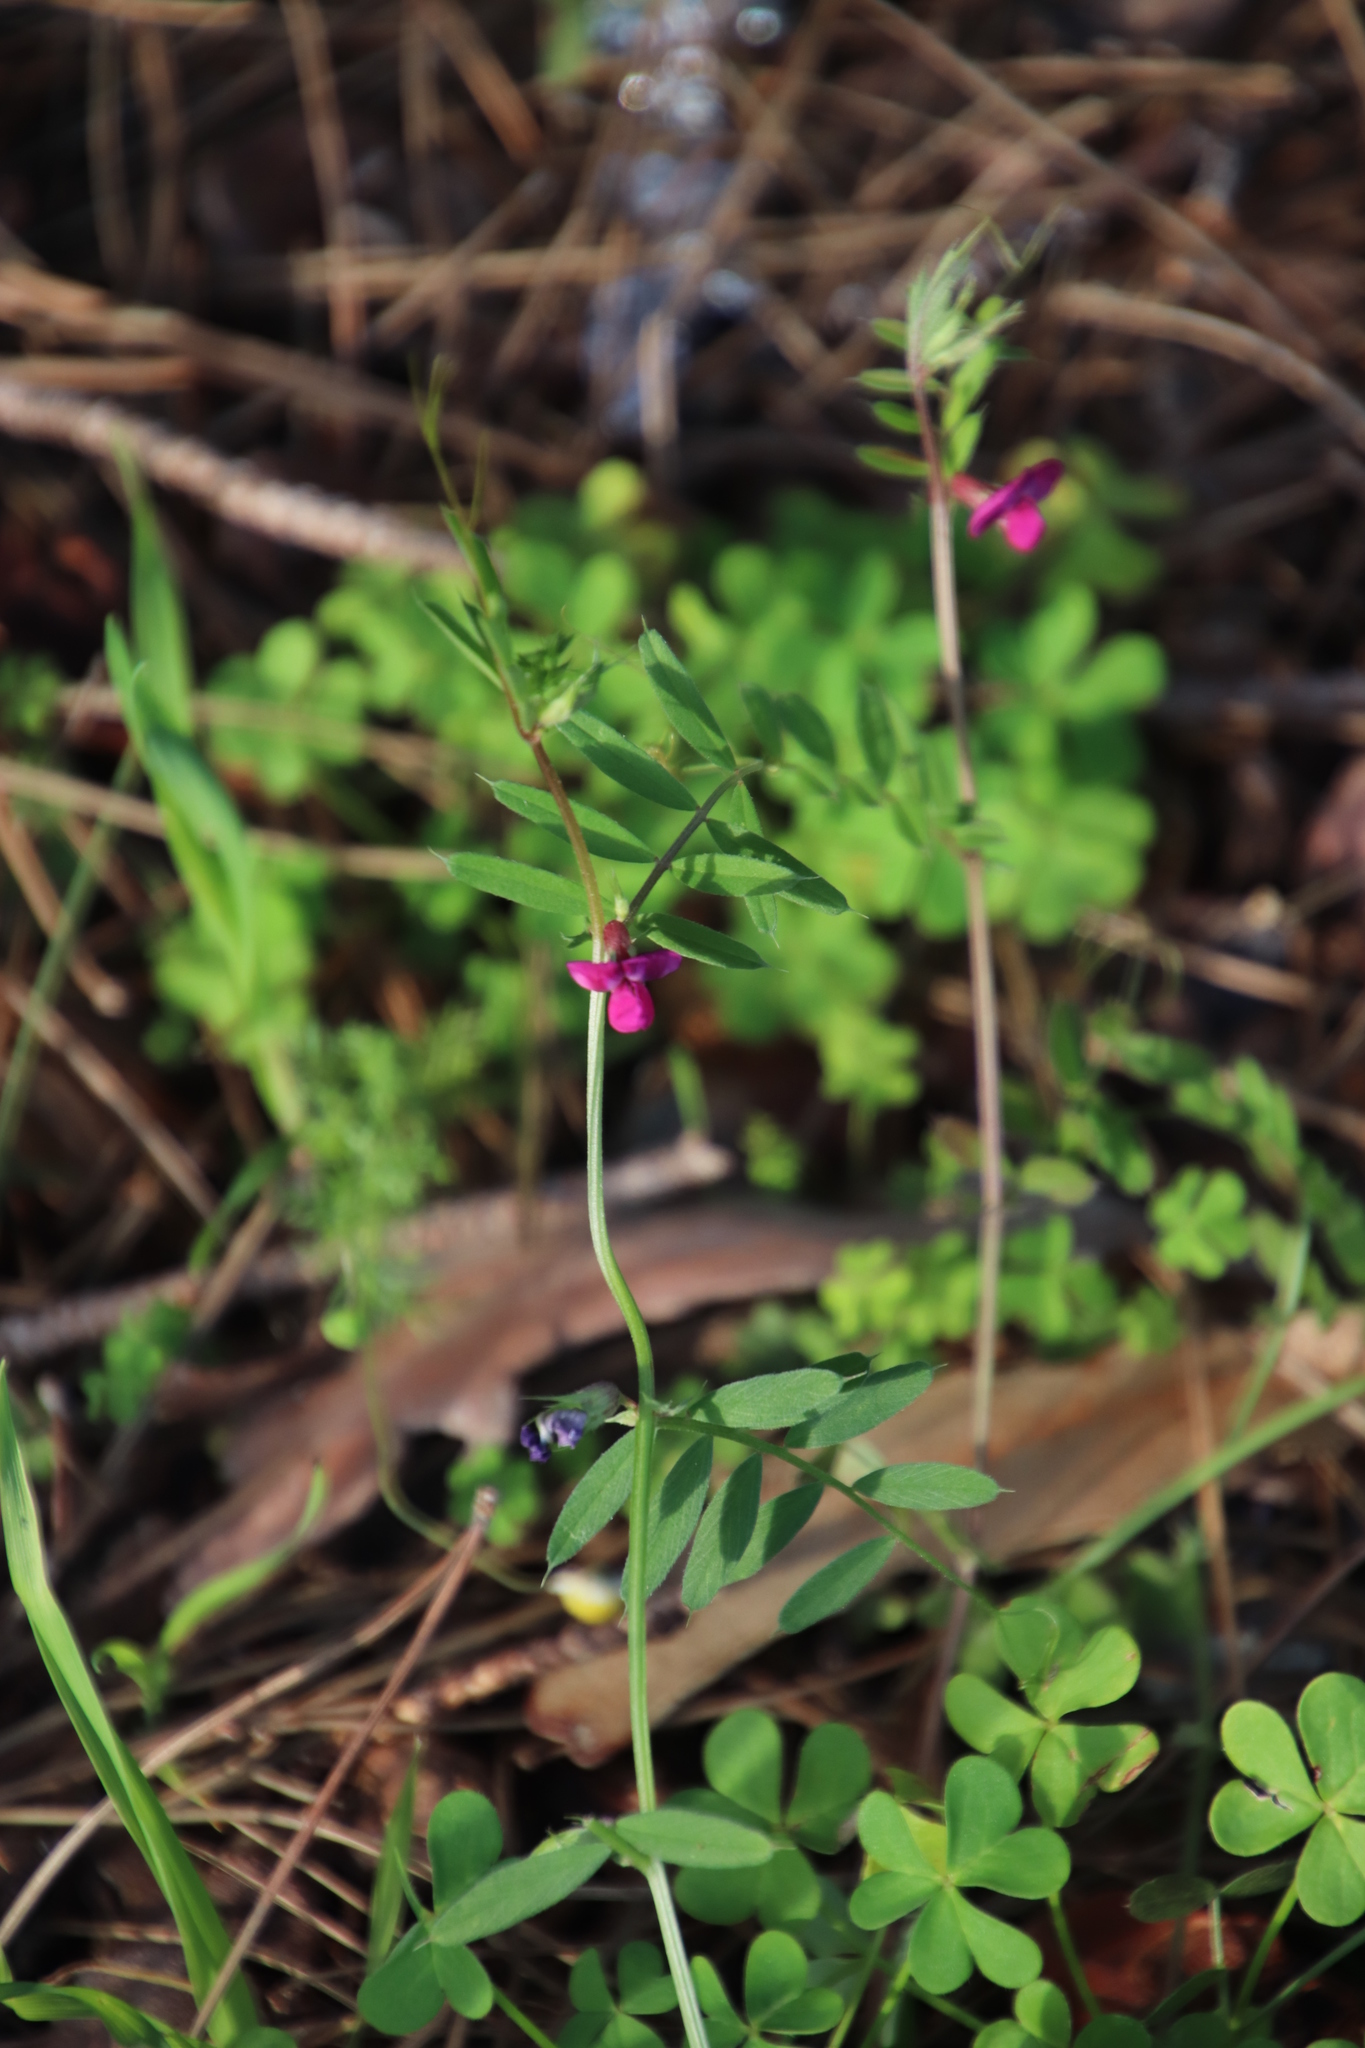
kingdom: Plantae
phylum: Tracheophyta
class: Magnoliopsida
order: Fabales
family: Fabaceae
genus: Vicia
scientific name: Vicia sativa
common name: Garden vetch
